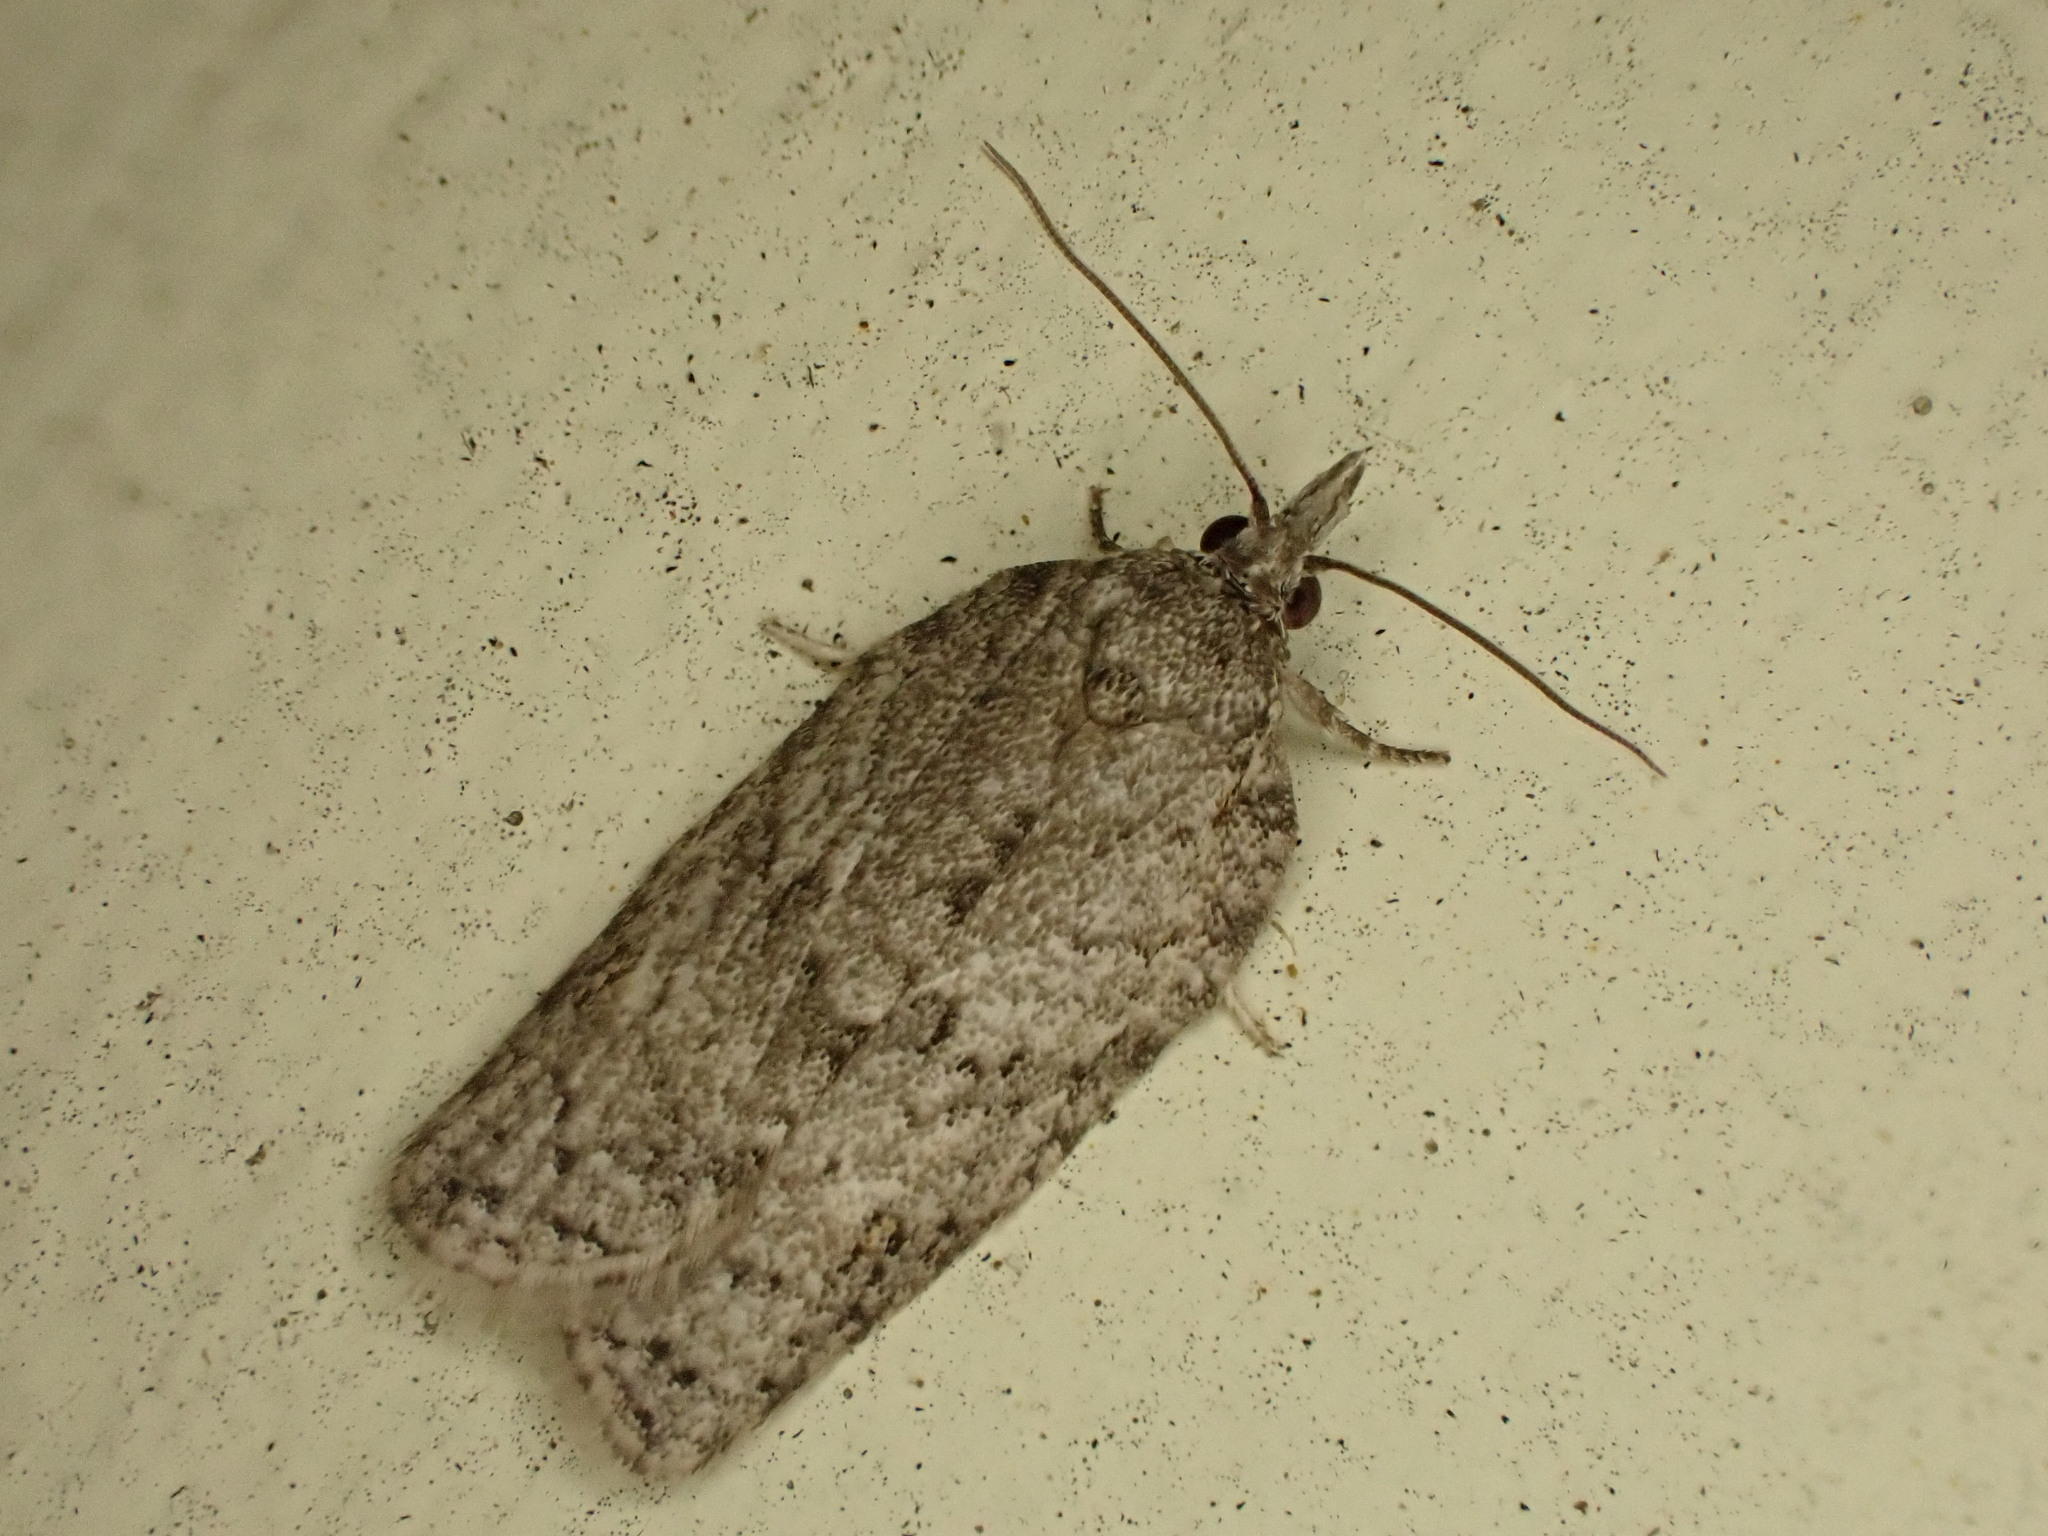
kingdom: Animalia
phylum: Arthropoda
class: Insecta
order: Lepidoptera
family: Tortricidae
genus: Isotenes
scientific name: Isotenes miserana
